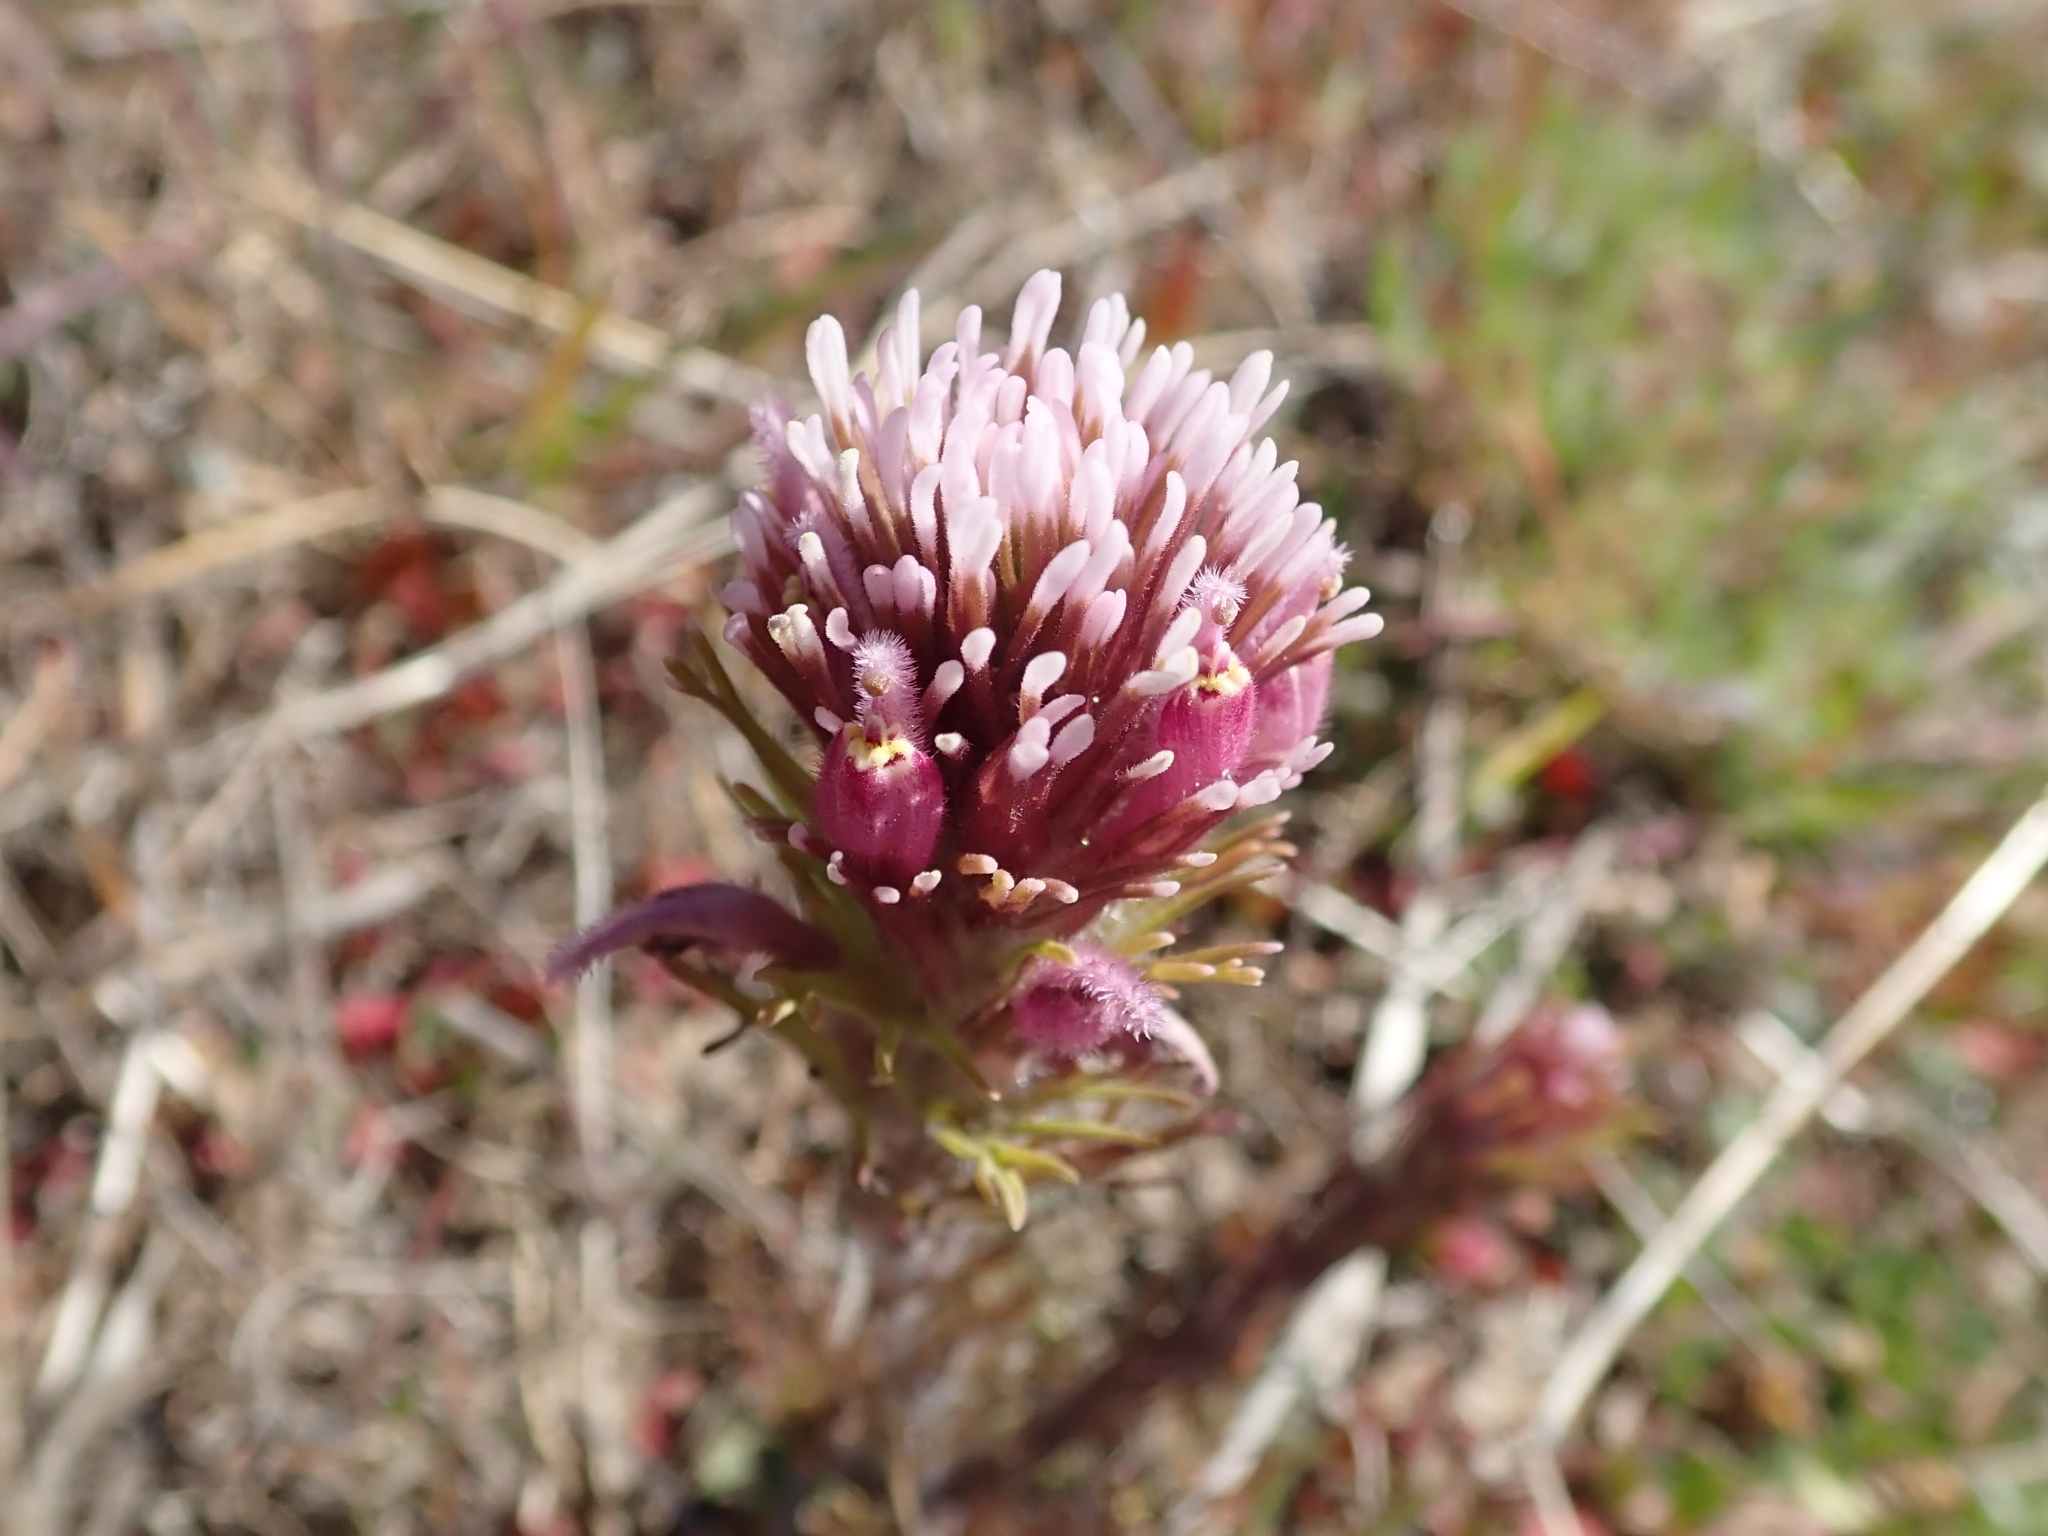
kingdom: Plantae
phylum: Tracheophyta
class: Magnoliopsida
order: Lamiales
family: Orobanchaceae
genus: Castilleja
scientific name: Castilleja exserta
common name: Purple owl-clover
